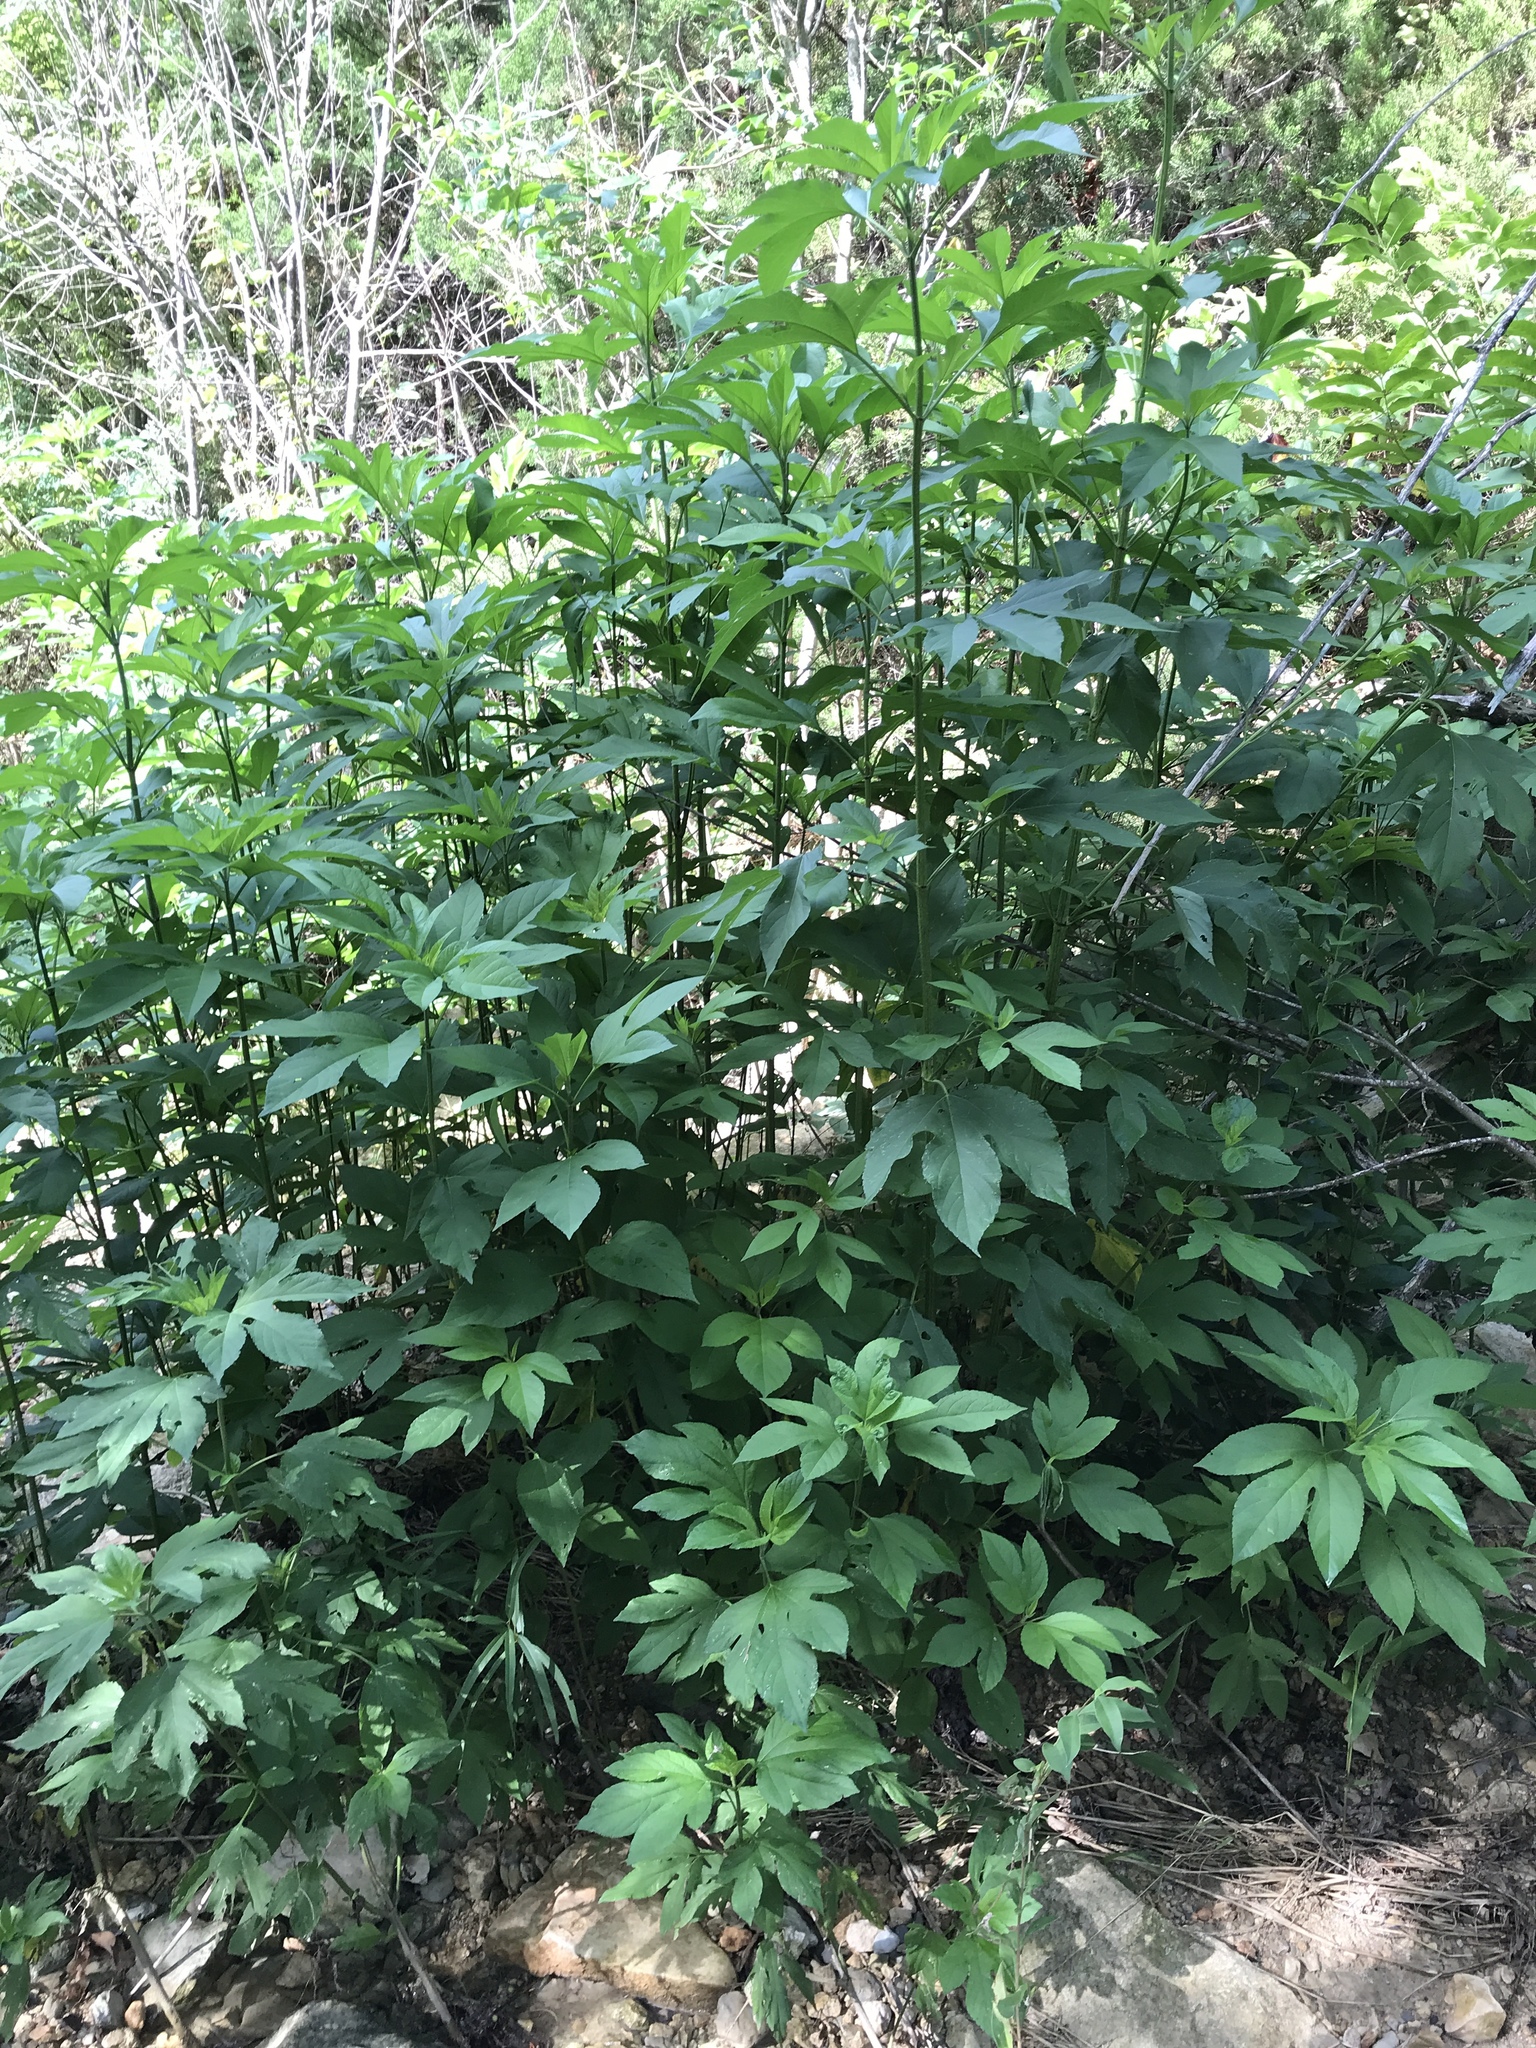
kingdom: Plantae
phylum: Tracheophyta
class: Magnoliopsida
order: Asterales
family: Asteraceae
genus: Ambrosia
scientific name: Ambrosia trifida
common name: Giant ragweed
